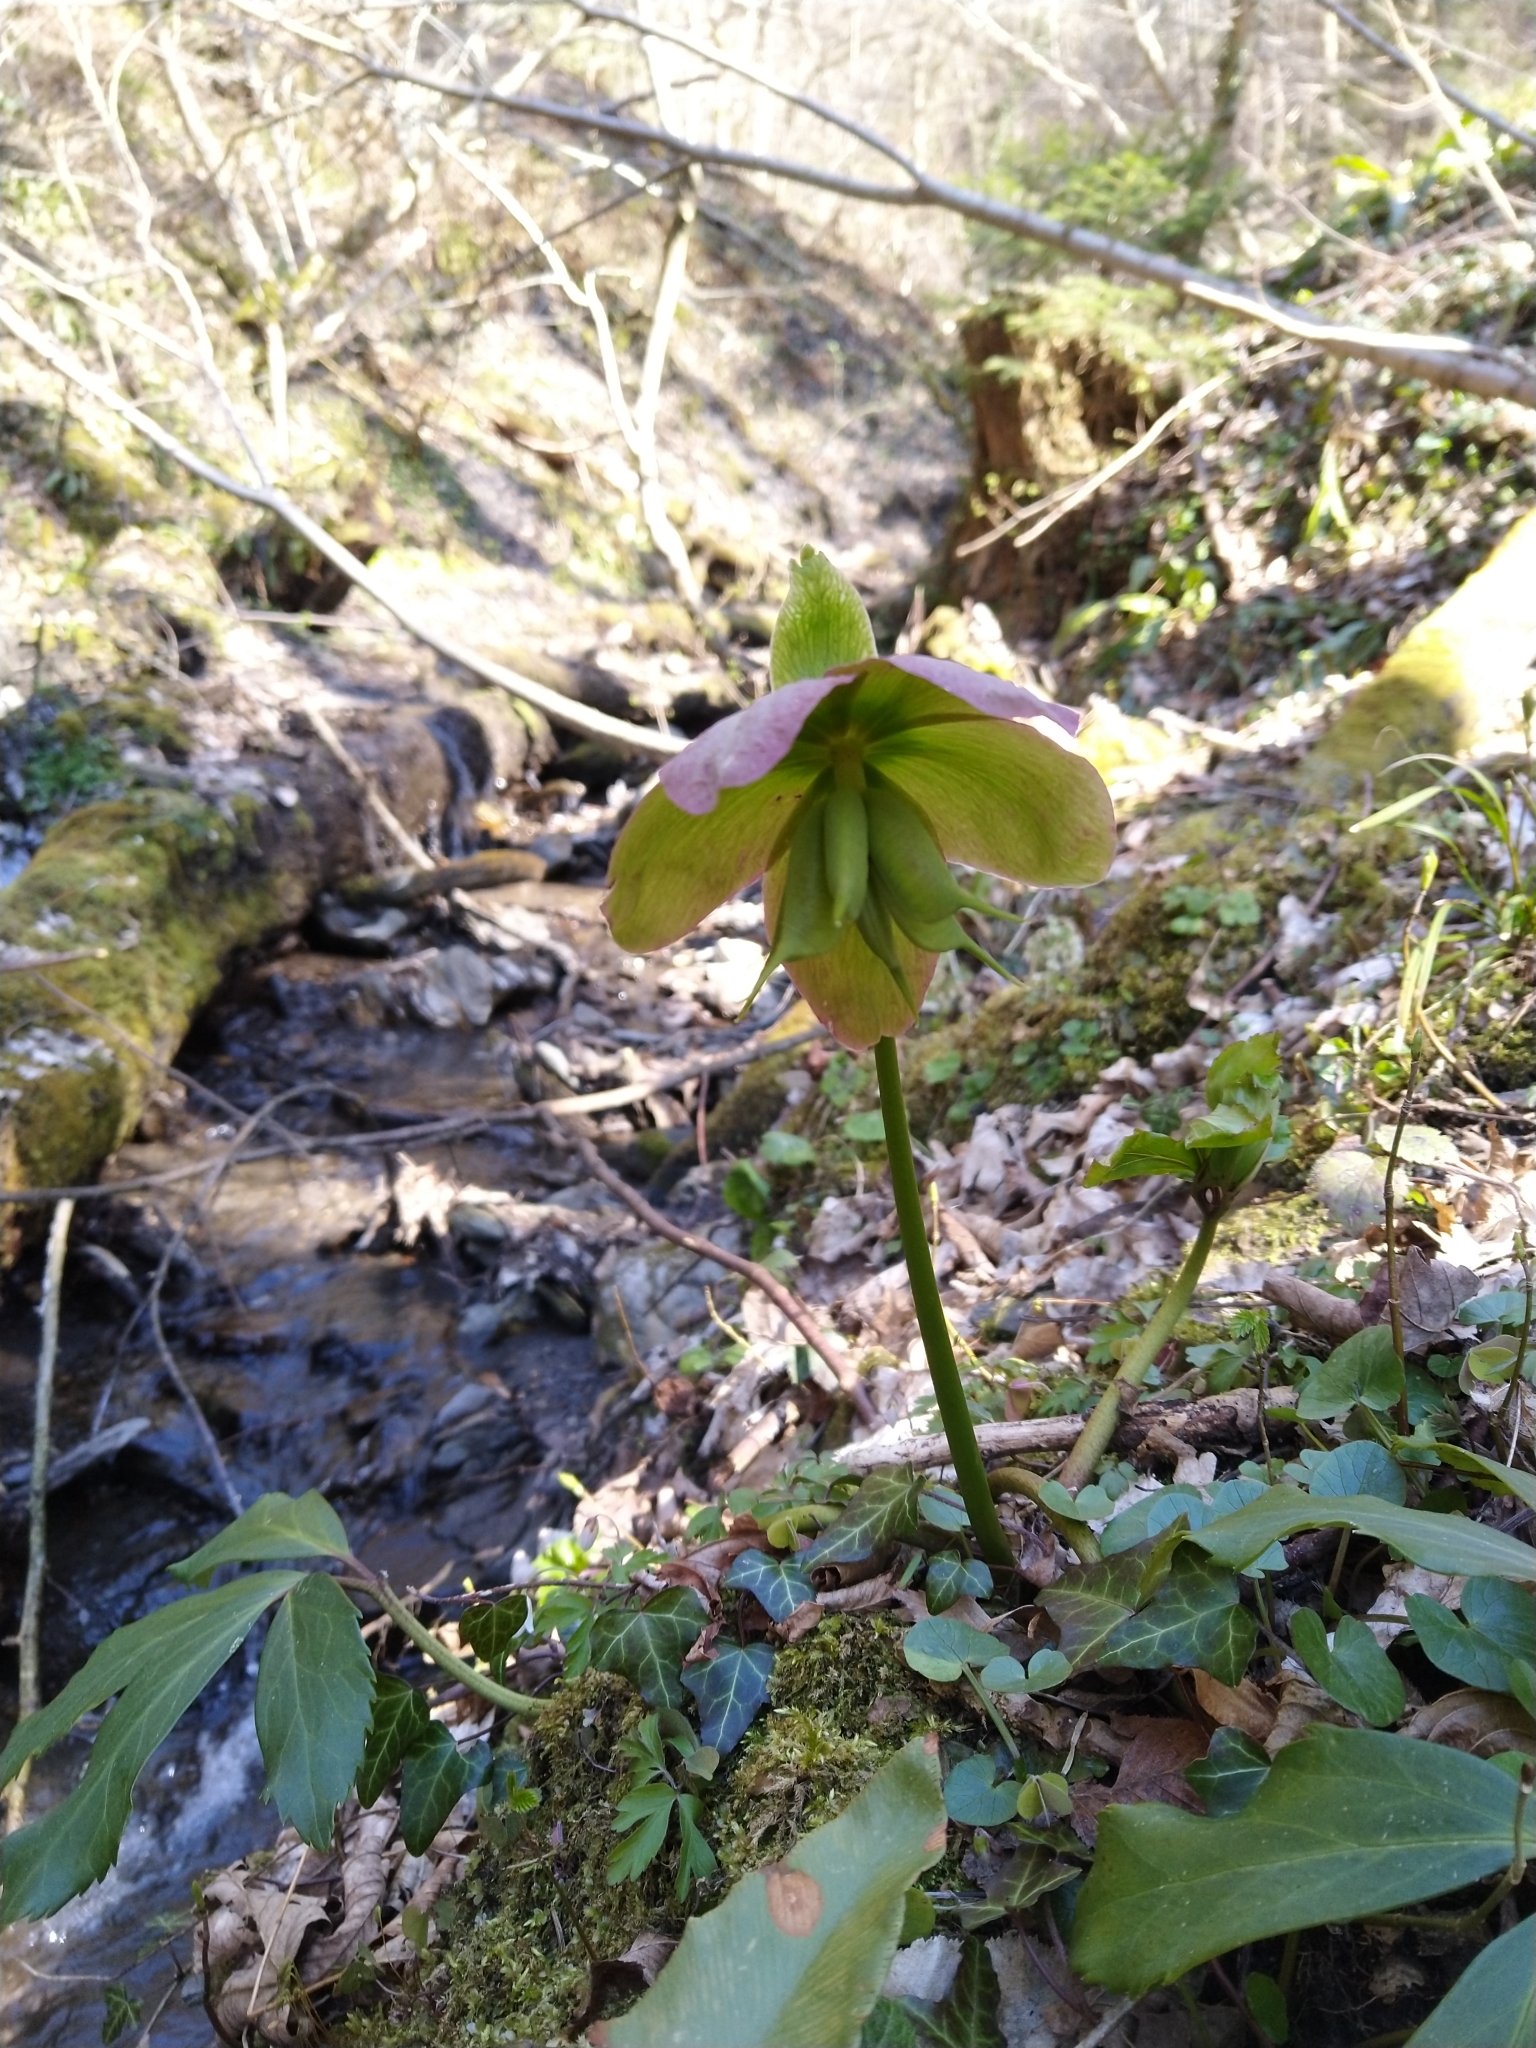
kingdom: Plantae
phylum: Tracheophyta
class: Magnoliopsida
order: Ranunculales
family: Ranunculaceae
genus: Helleborus
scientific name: Helleborus niger
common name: Black hellebore
